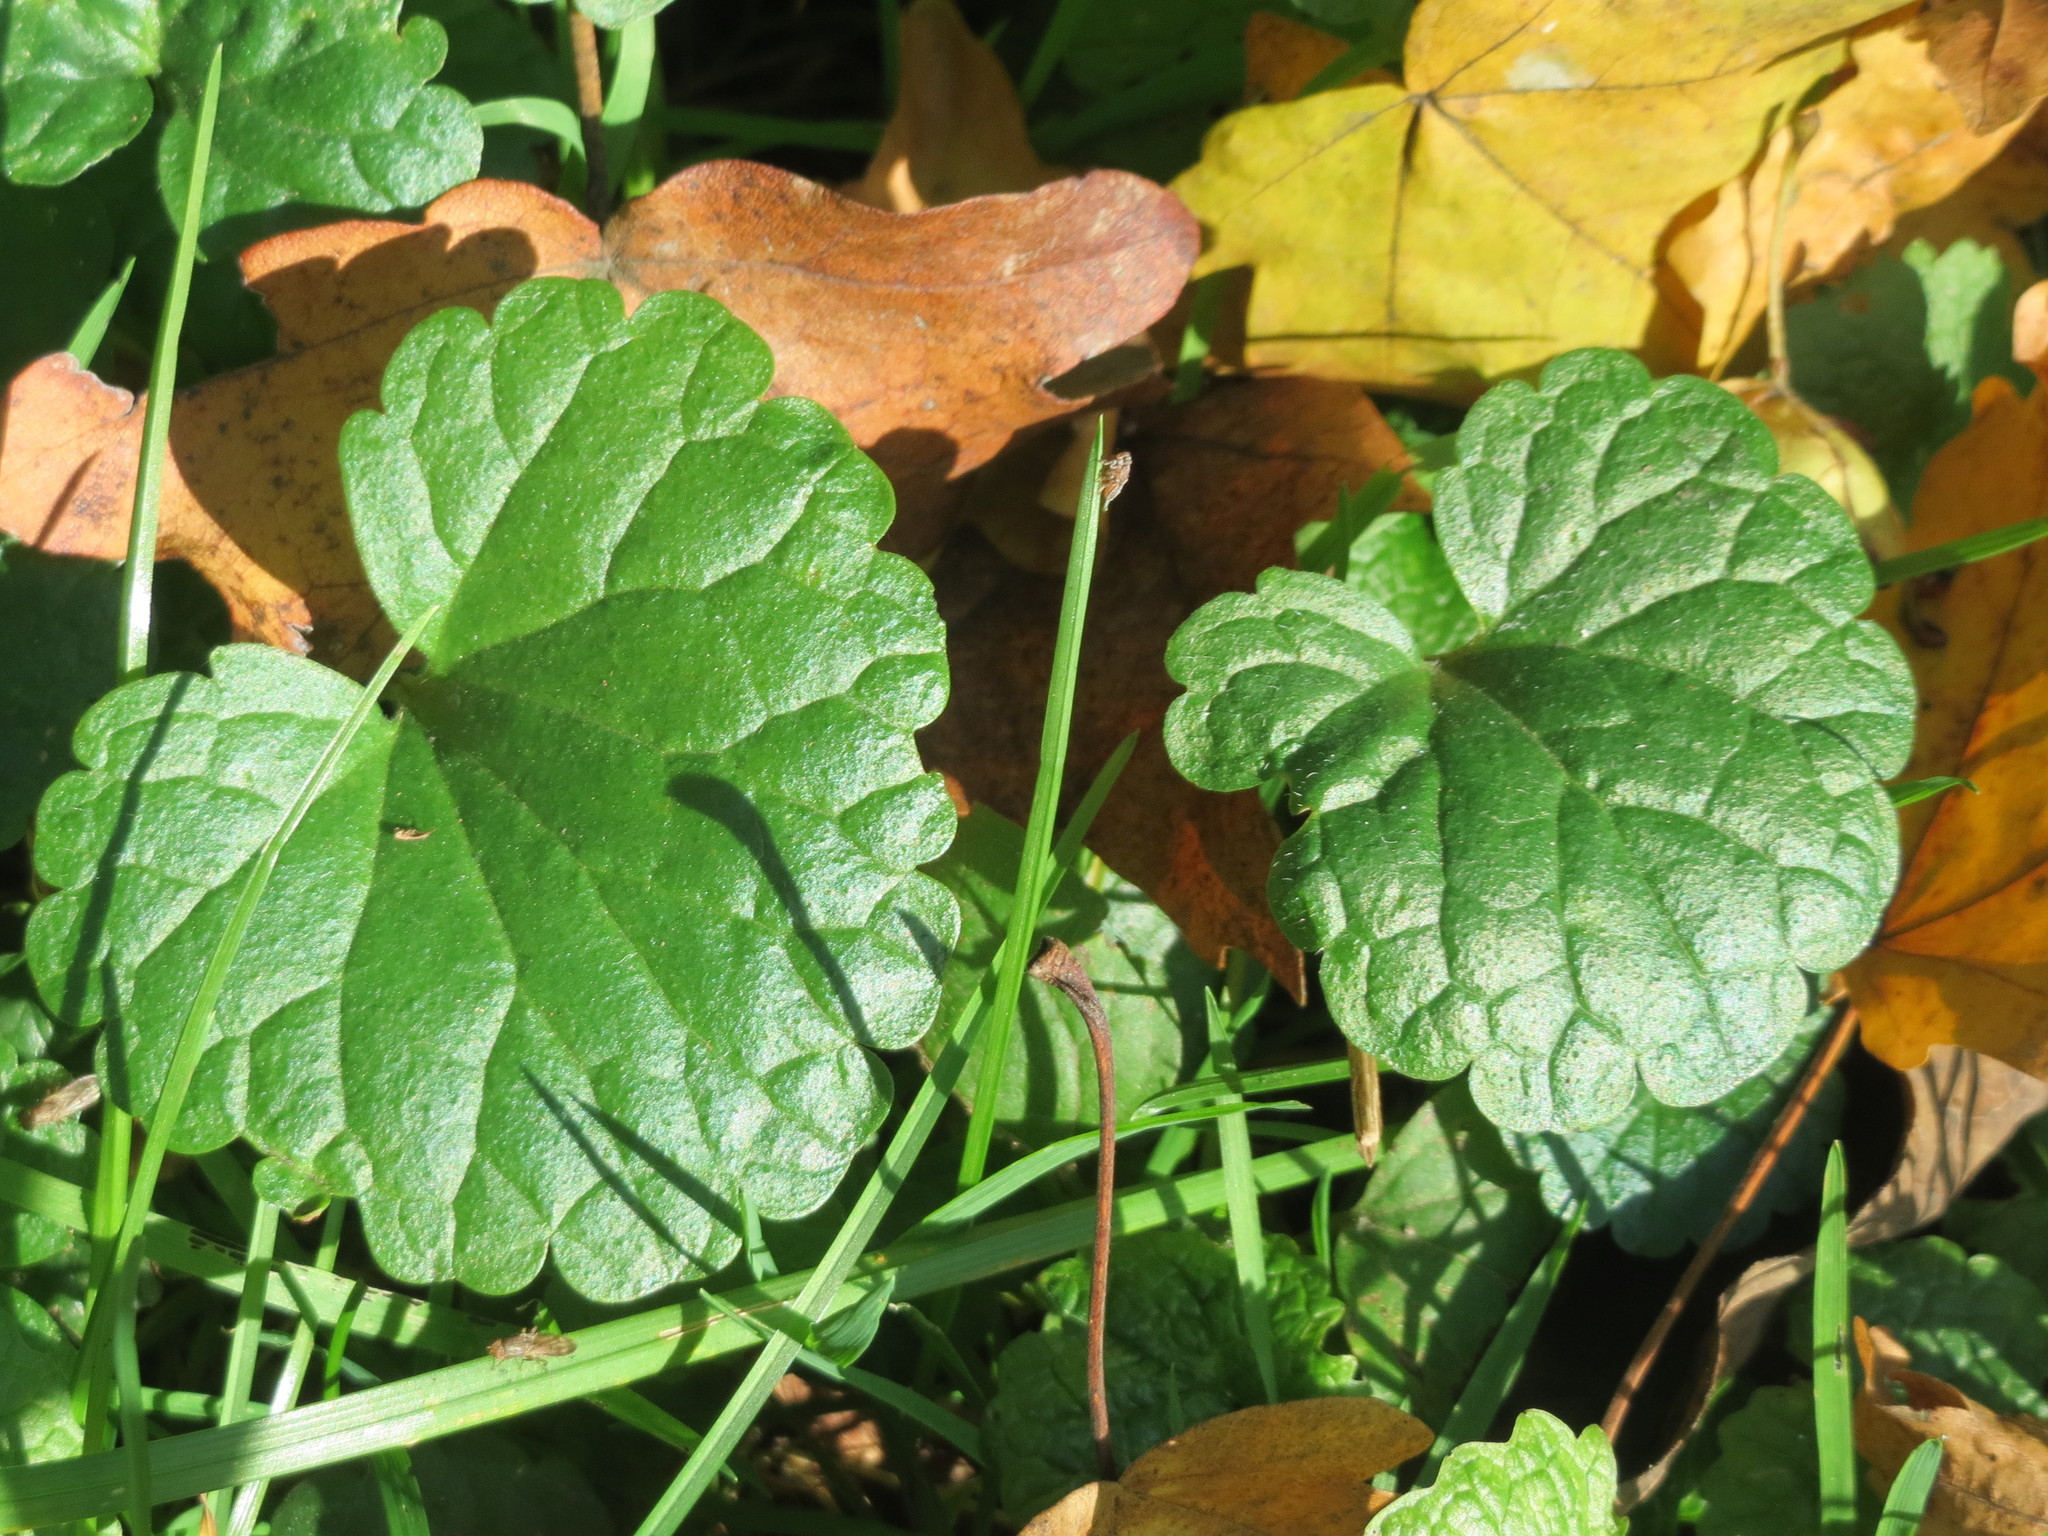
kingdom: Plantae
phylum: Tracheophyta
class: Magnoliopsida
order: Lamiales
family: Lamiaceae
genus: Glechoma
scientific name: Glechoma hederacea
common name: Ground ivy
